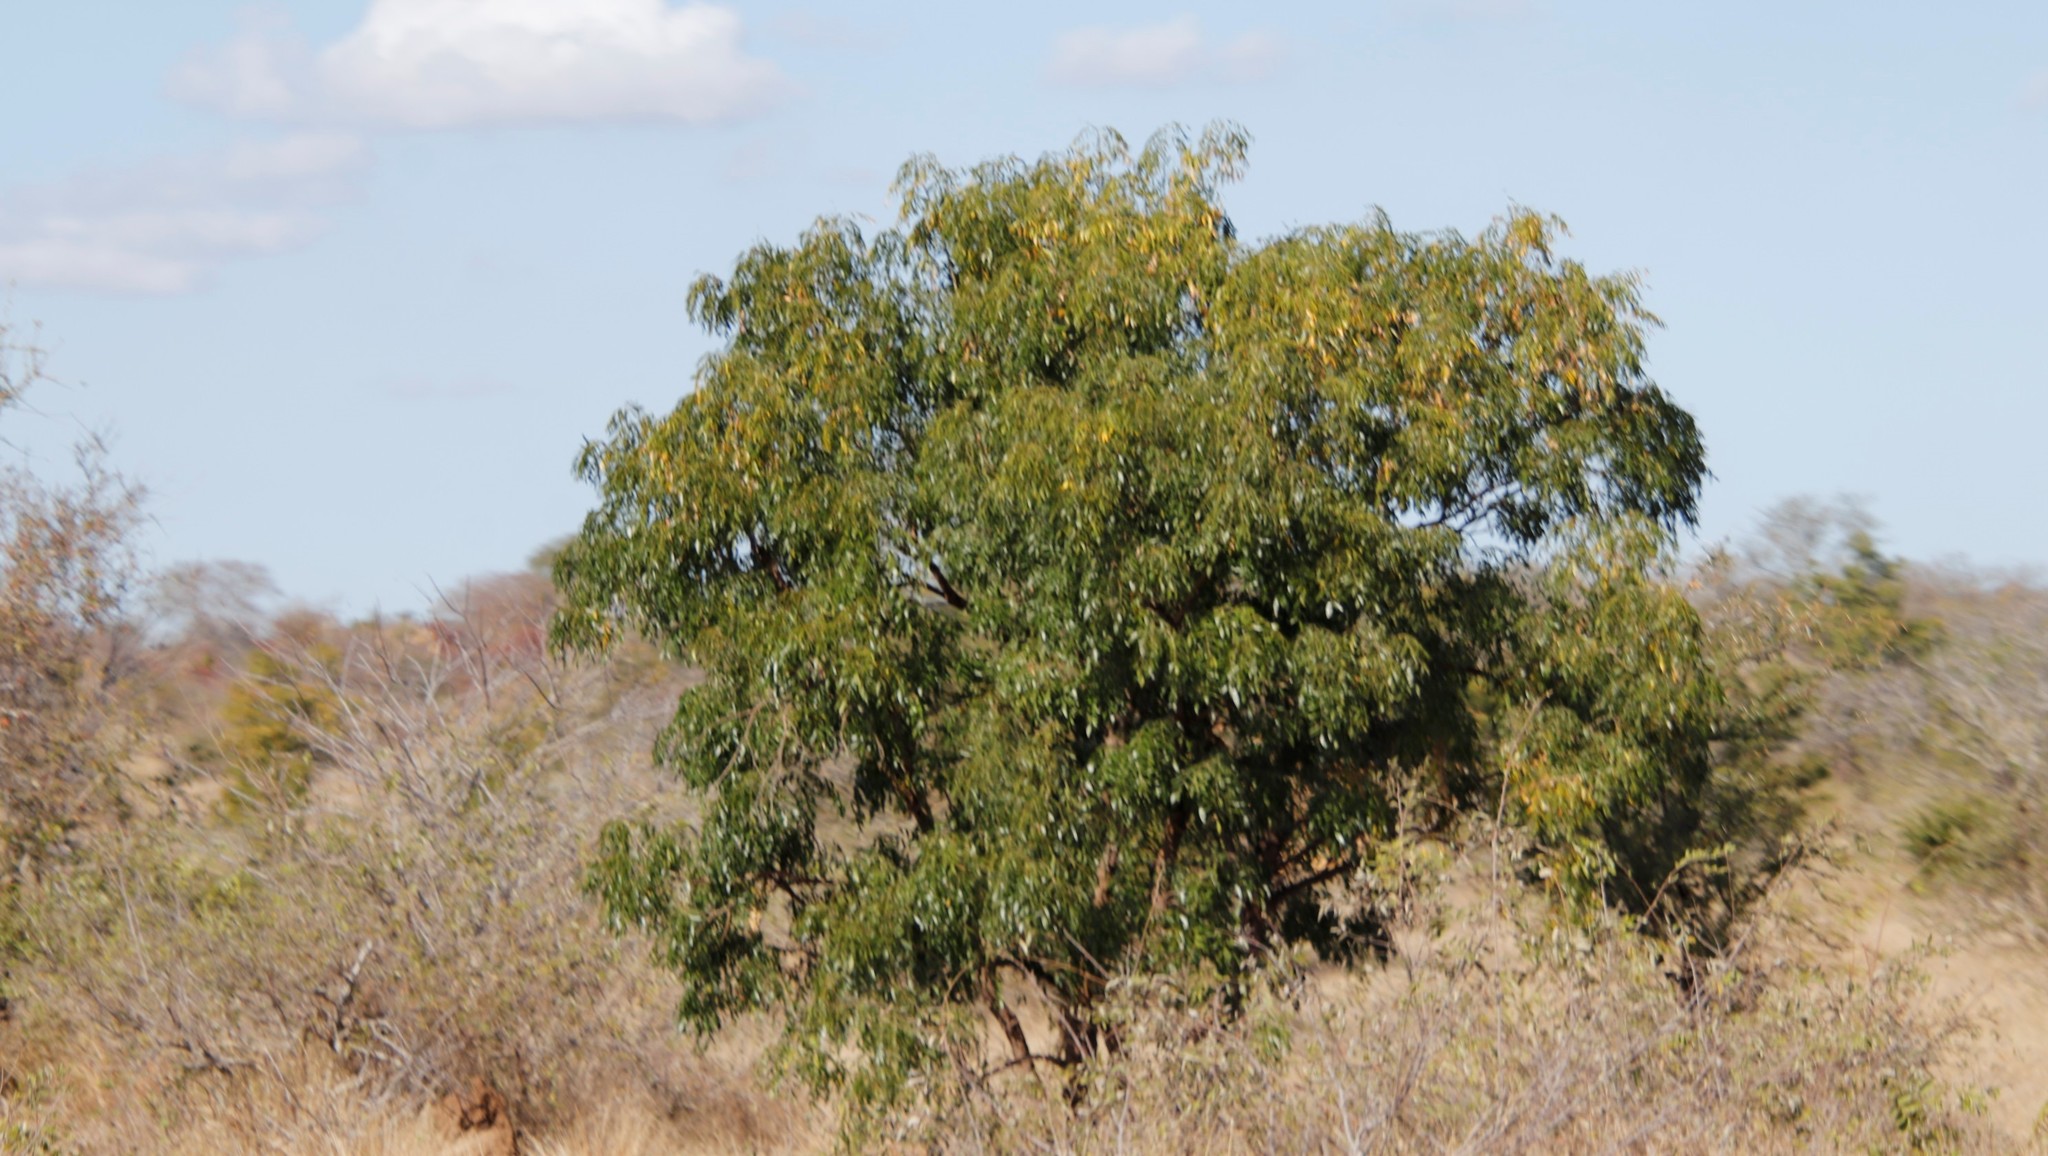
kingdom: Plantae
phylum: Tracheophyta
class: Magnoliopsida
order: Fabales
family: Fabaceae
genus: Bolusanthus
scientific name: Bolusanthus speciosus
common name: Tree wisteria
